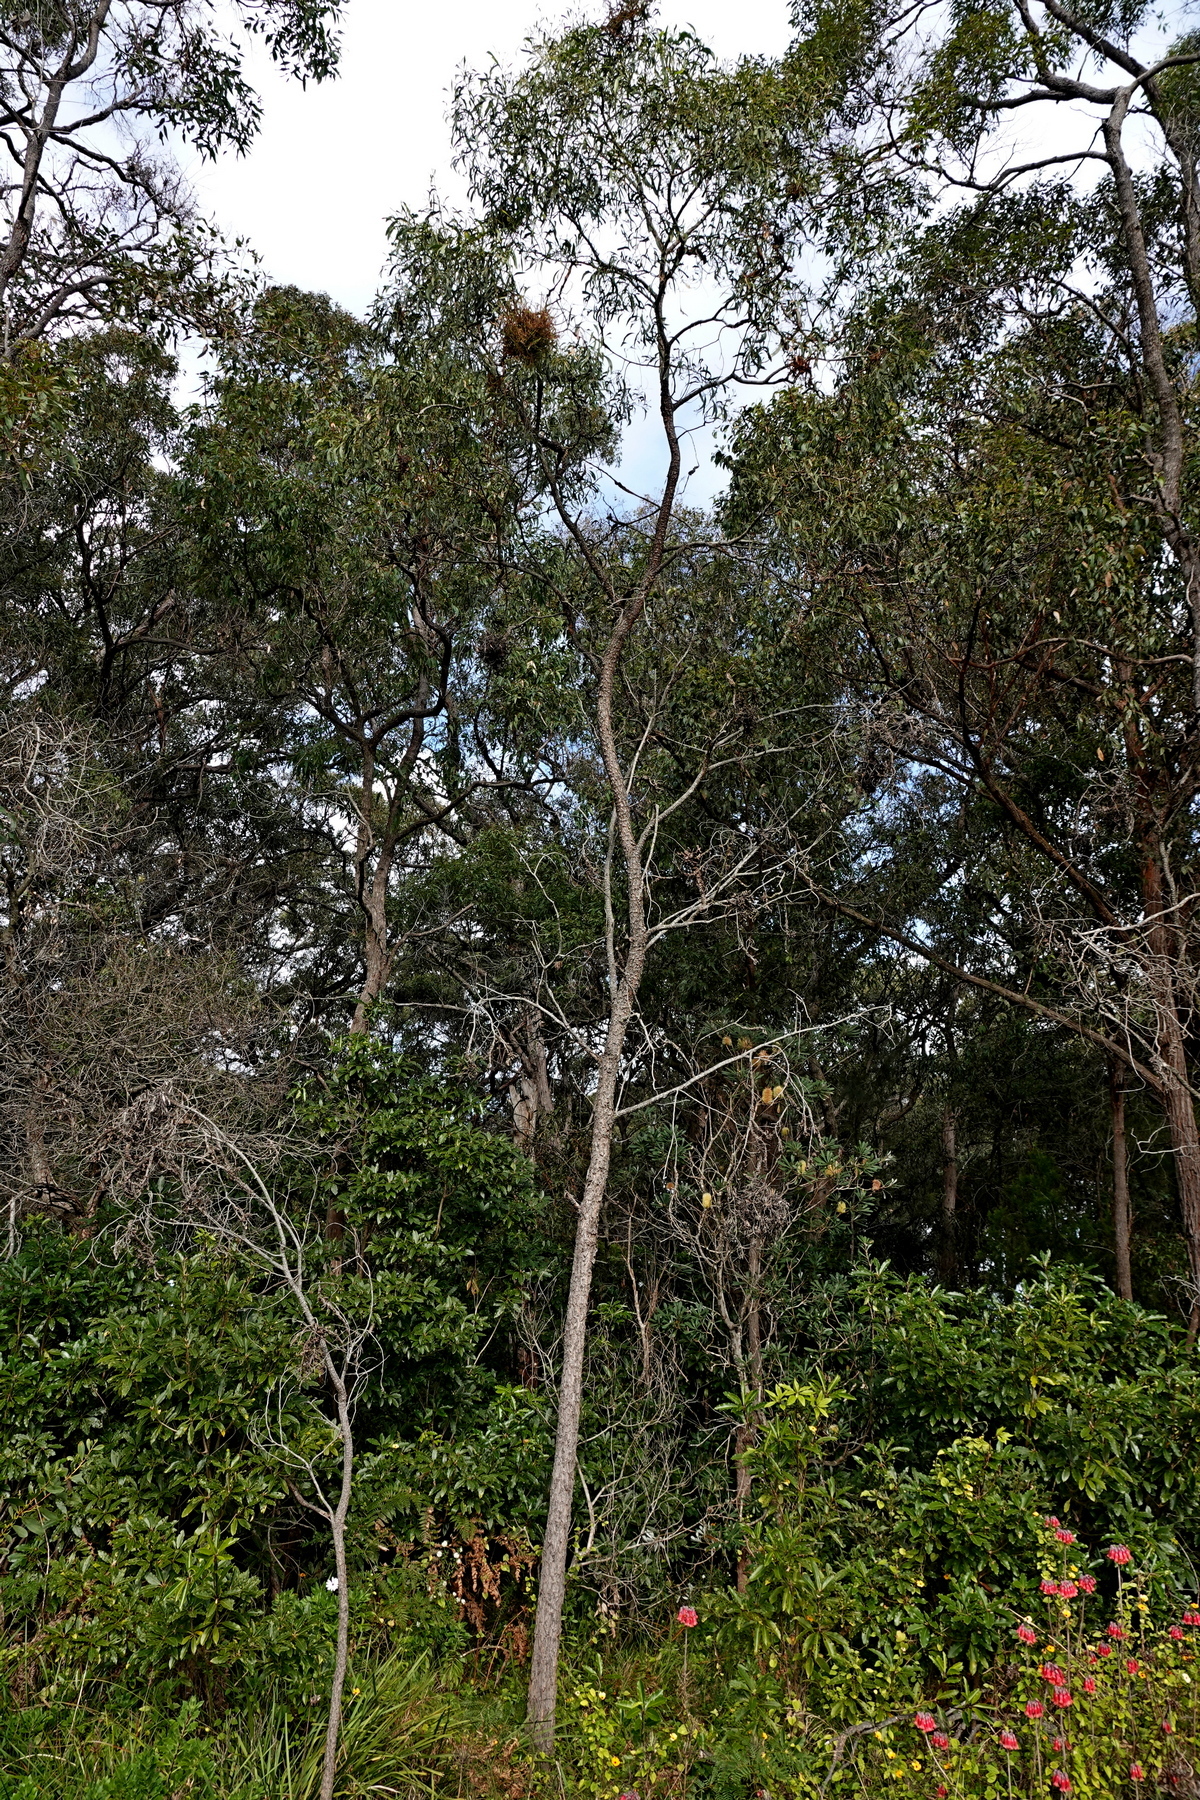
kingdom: Plantae
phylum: Tracheophyta
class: Magnoliopsida
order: Fabales
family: Fabaceae
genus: Acacia
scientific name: Acacia implexa
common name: Black wattle
